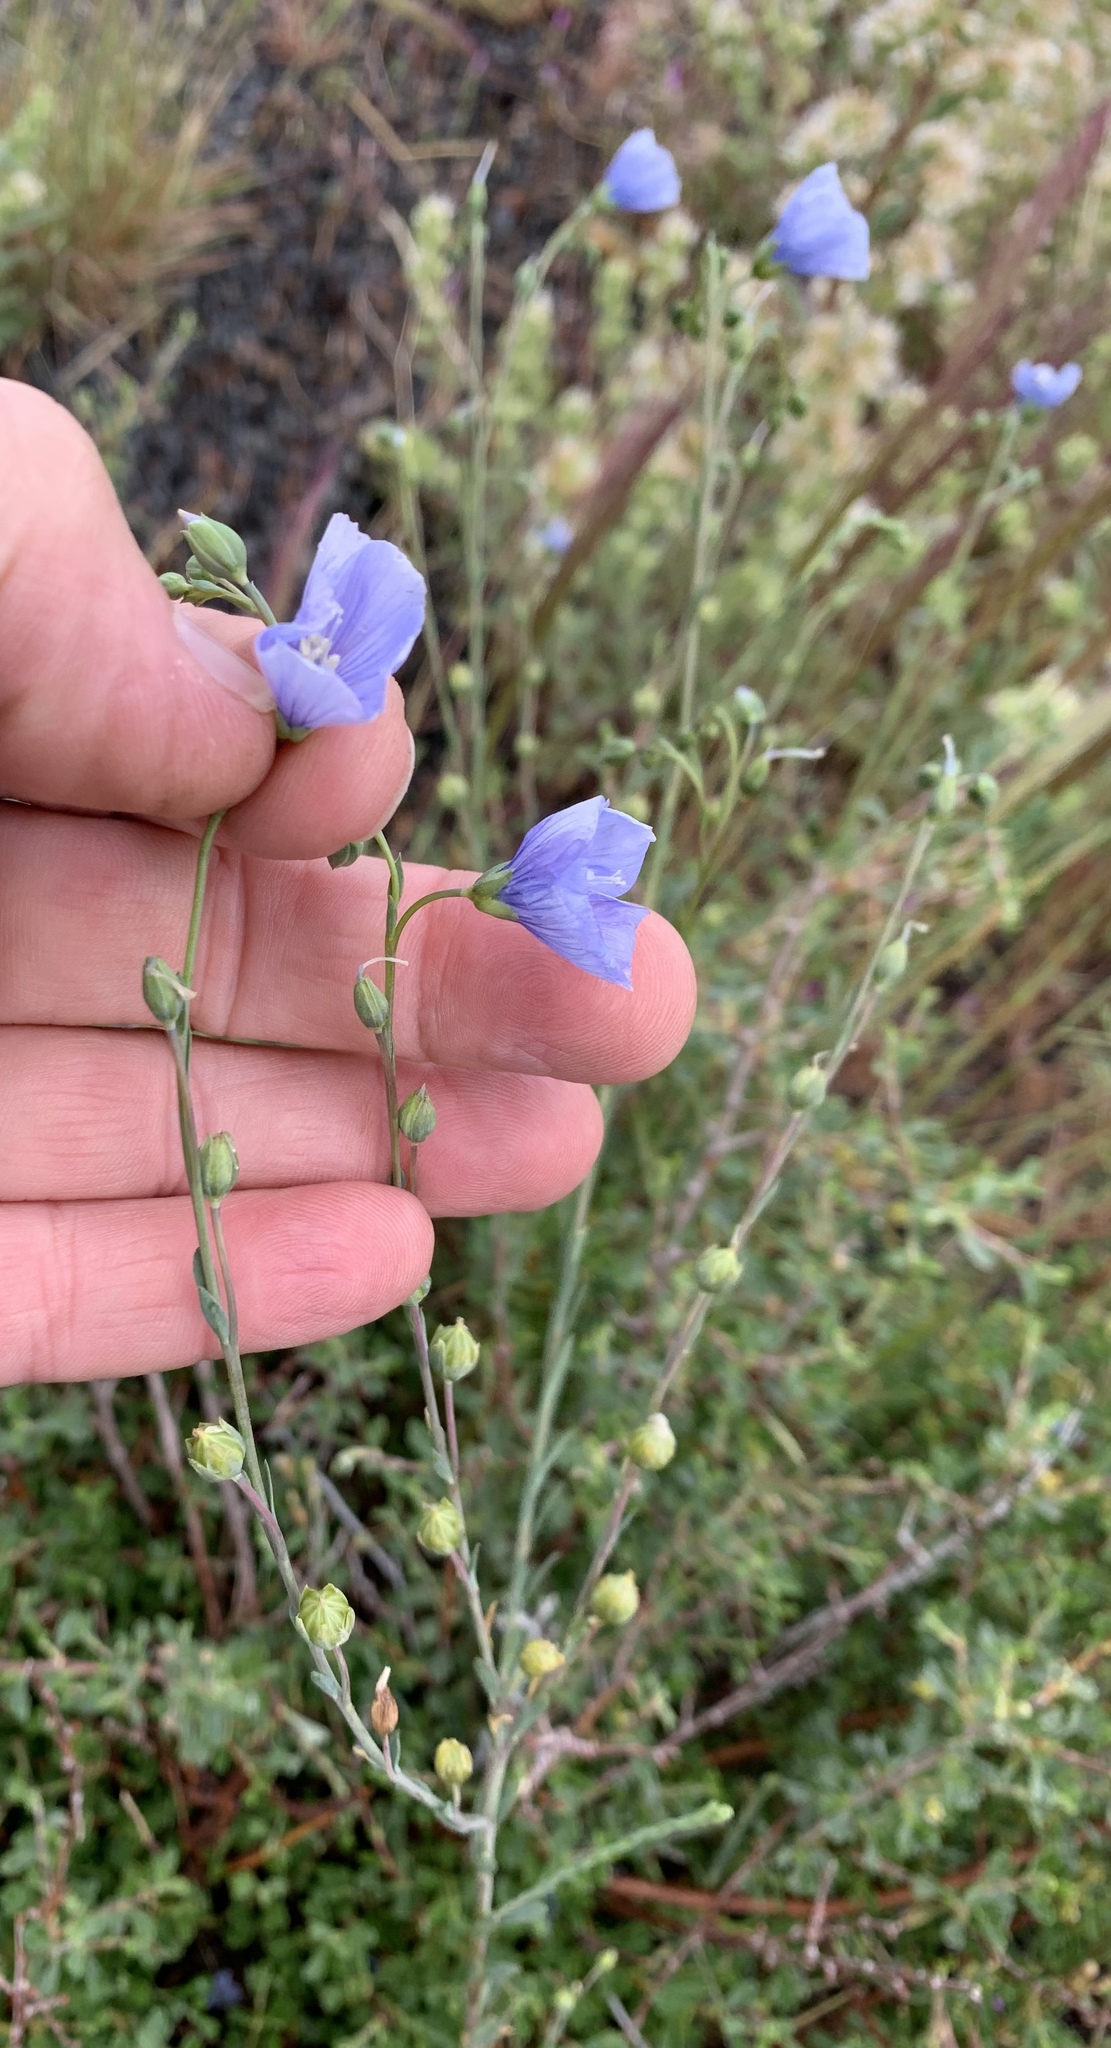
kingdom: Plantae
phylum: Tracheophyta
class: Magnoliopsida
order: Malpighiales
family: Linaceae
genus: Linum
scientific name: Linum lewisii
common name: Prairie flax
